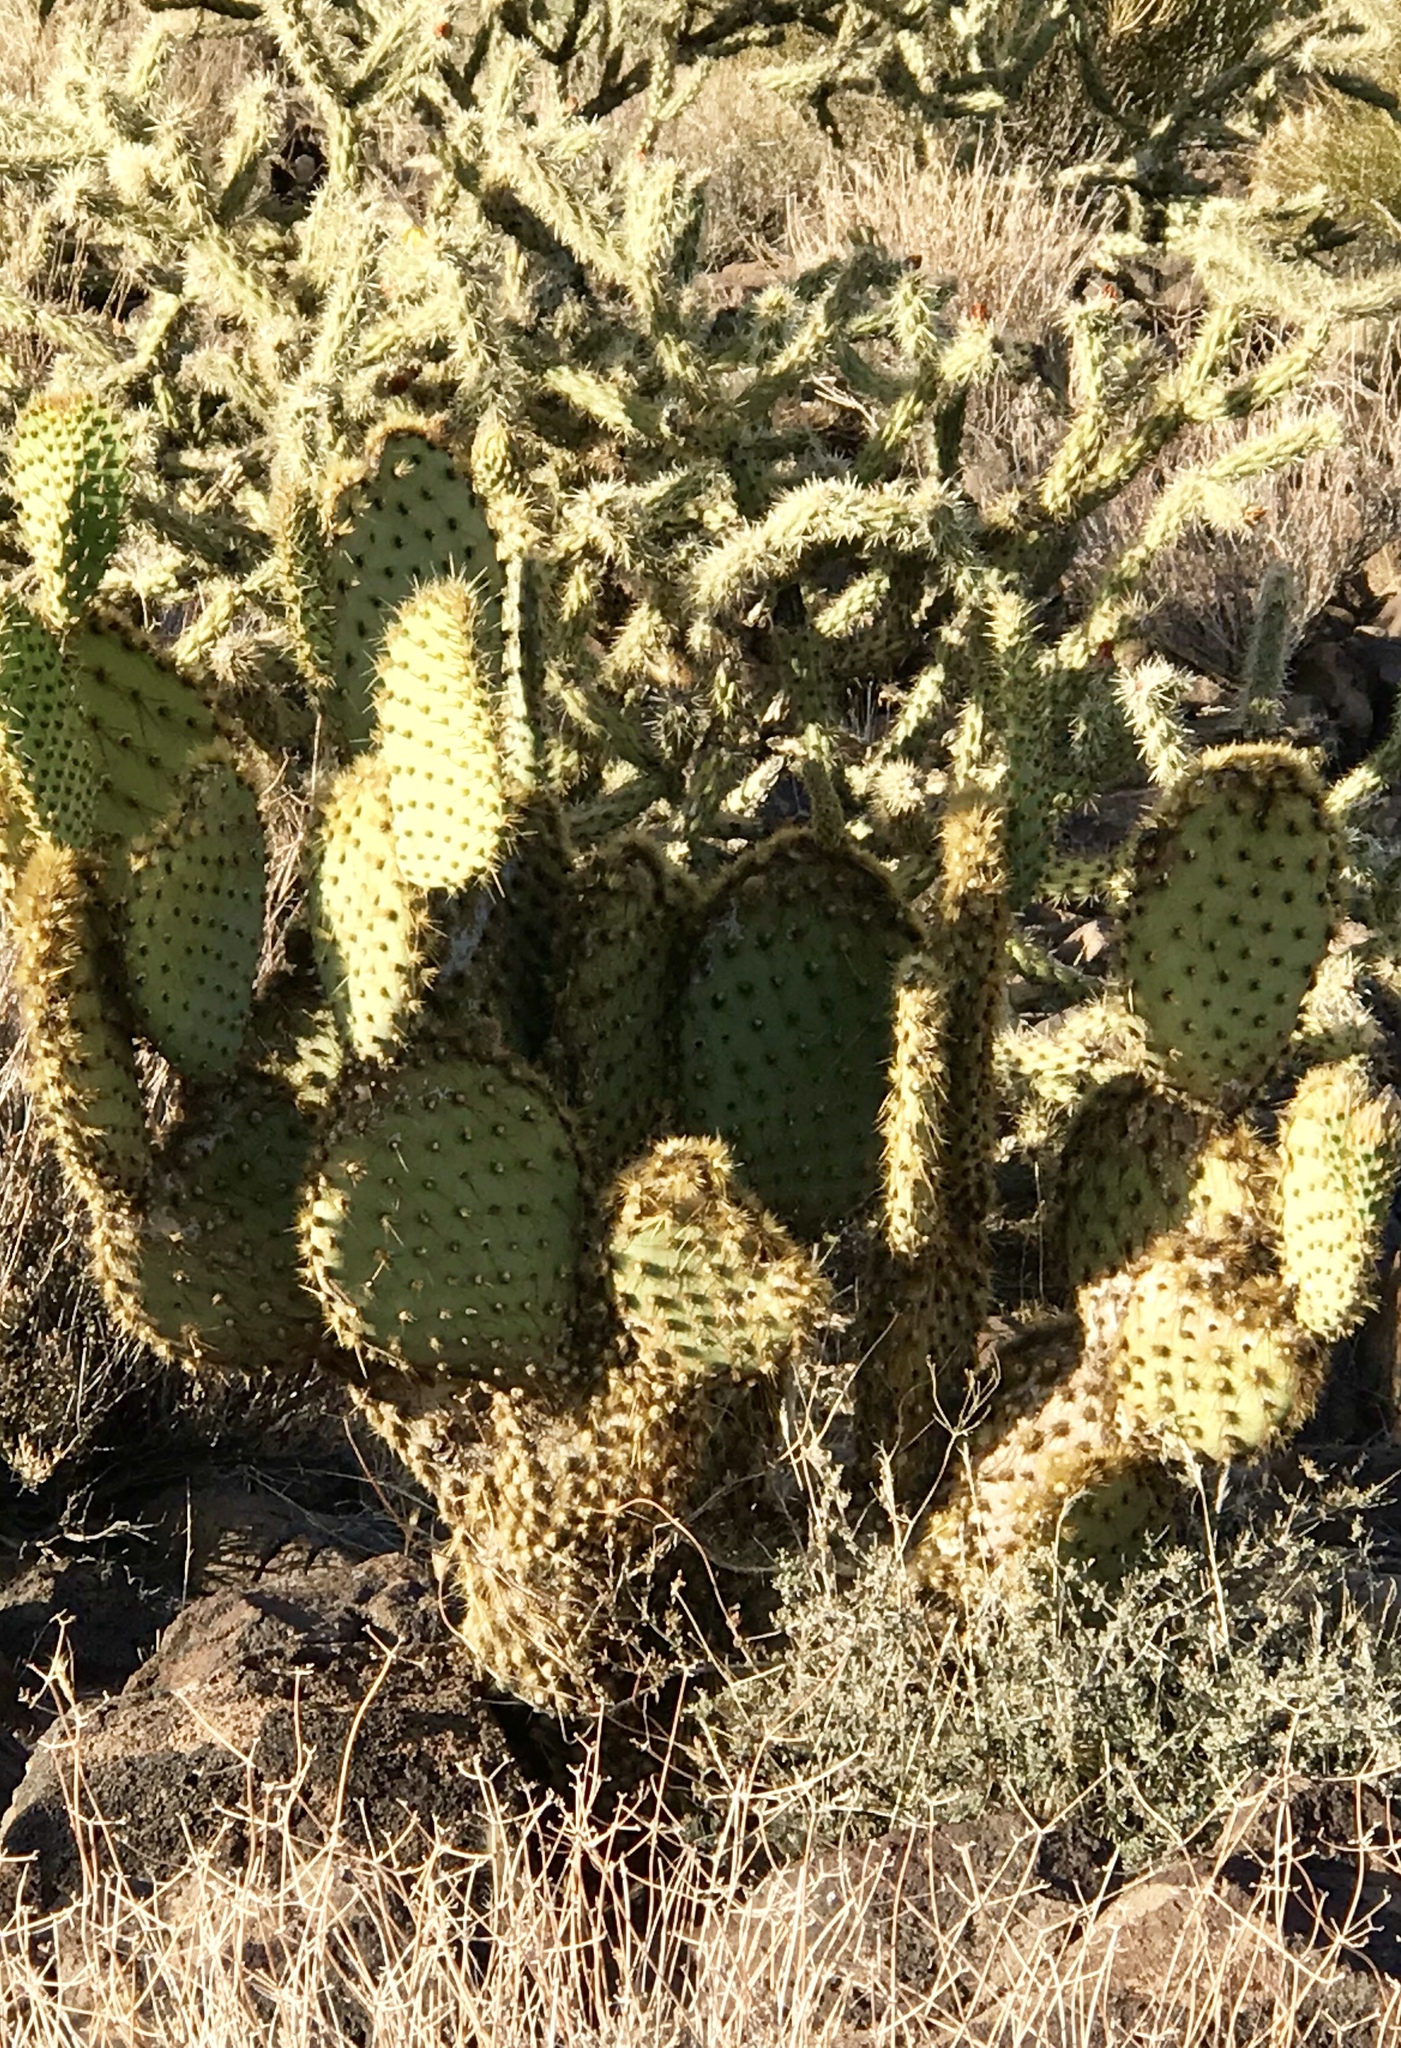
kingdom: Plantae
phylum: Tracheophyta
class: Magnoliopsida
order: Caryophyllales
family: Cactaceae
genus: Opuntia
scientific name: Opuntia chlorotica
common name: Dollar-joint prickly-pear
